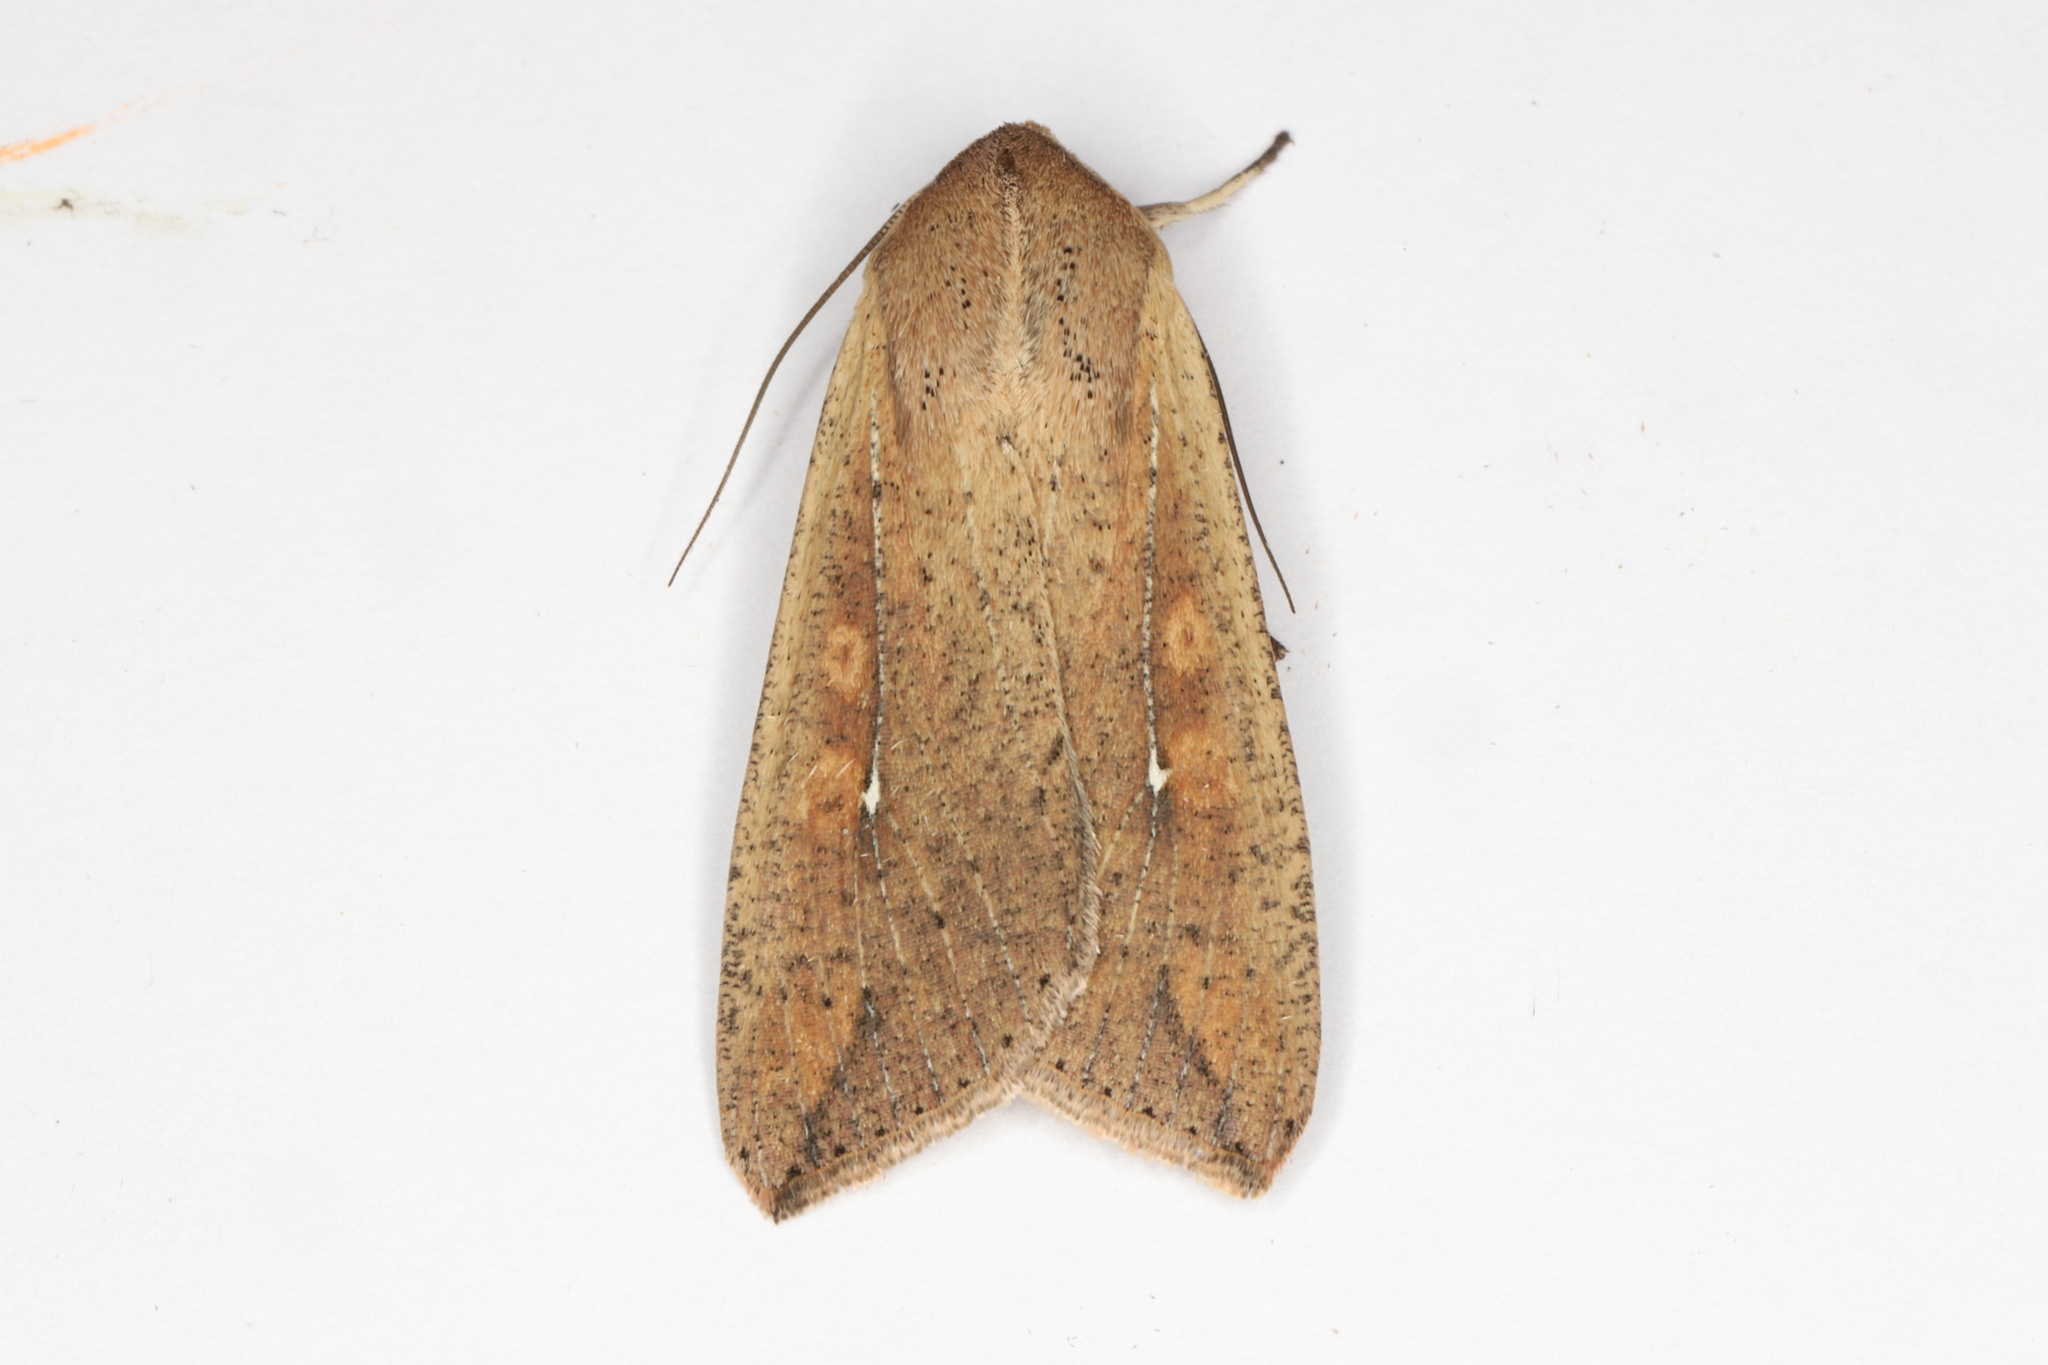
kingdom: Animalia
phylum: Arthropoda
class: Insecta
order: Lepidoptera
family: Noctuidae
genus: Mythimna
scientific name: Mythimna unipuncta
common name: White-speck
